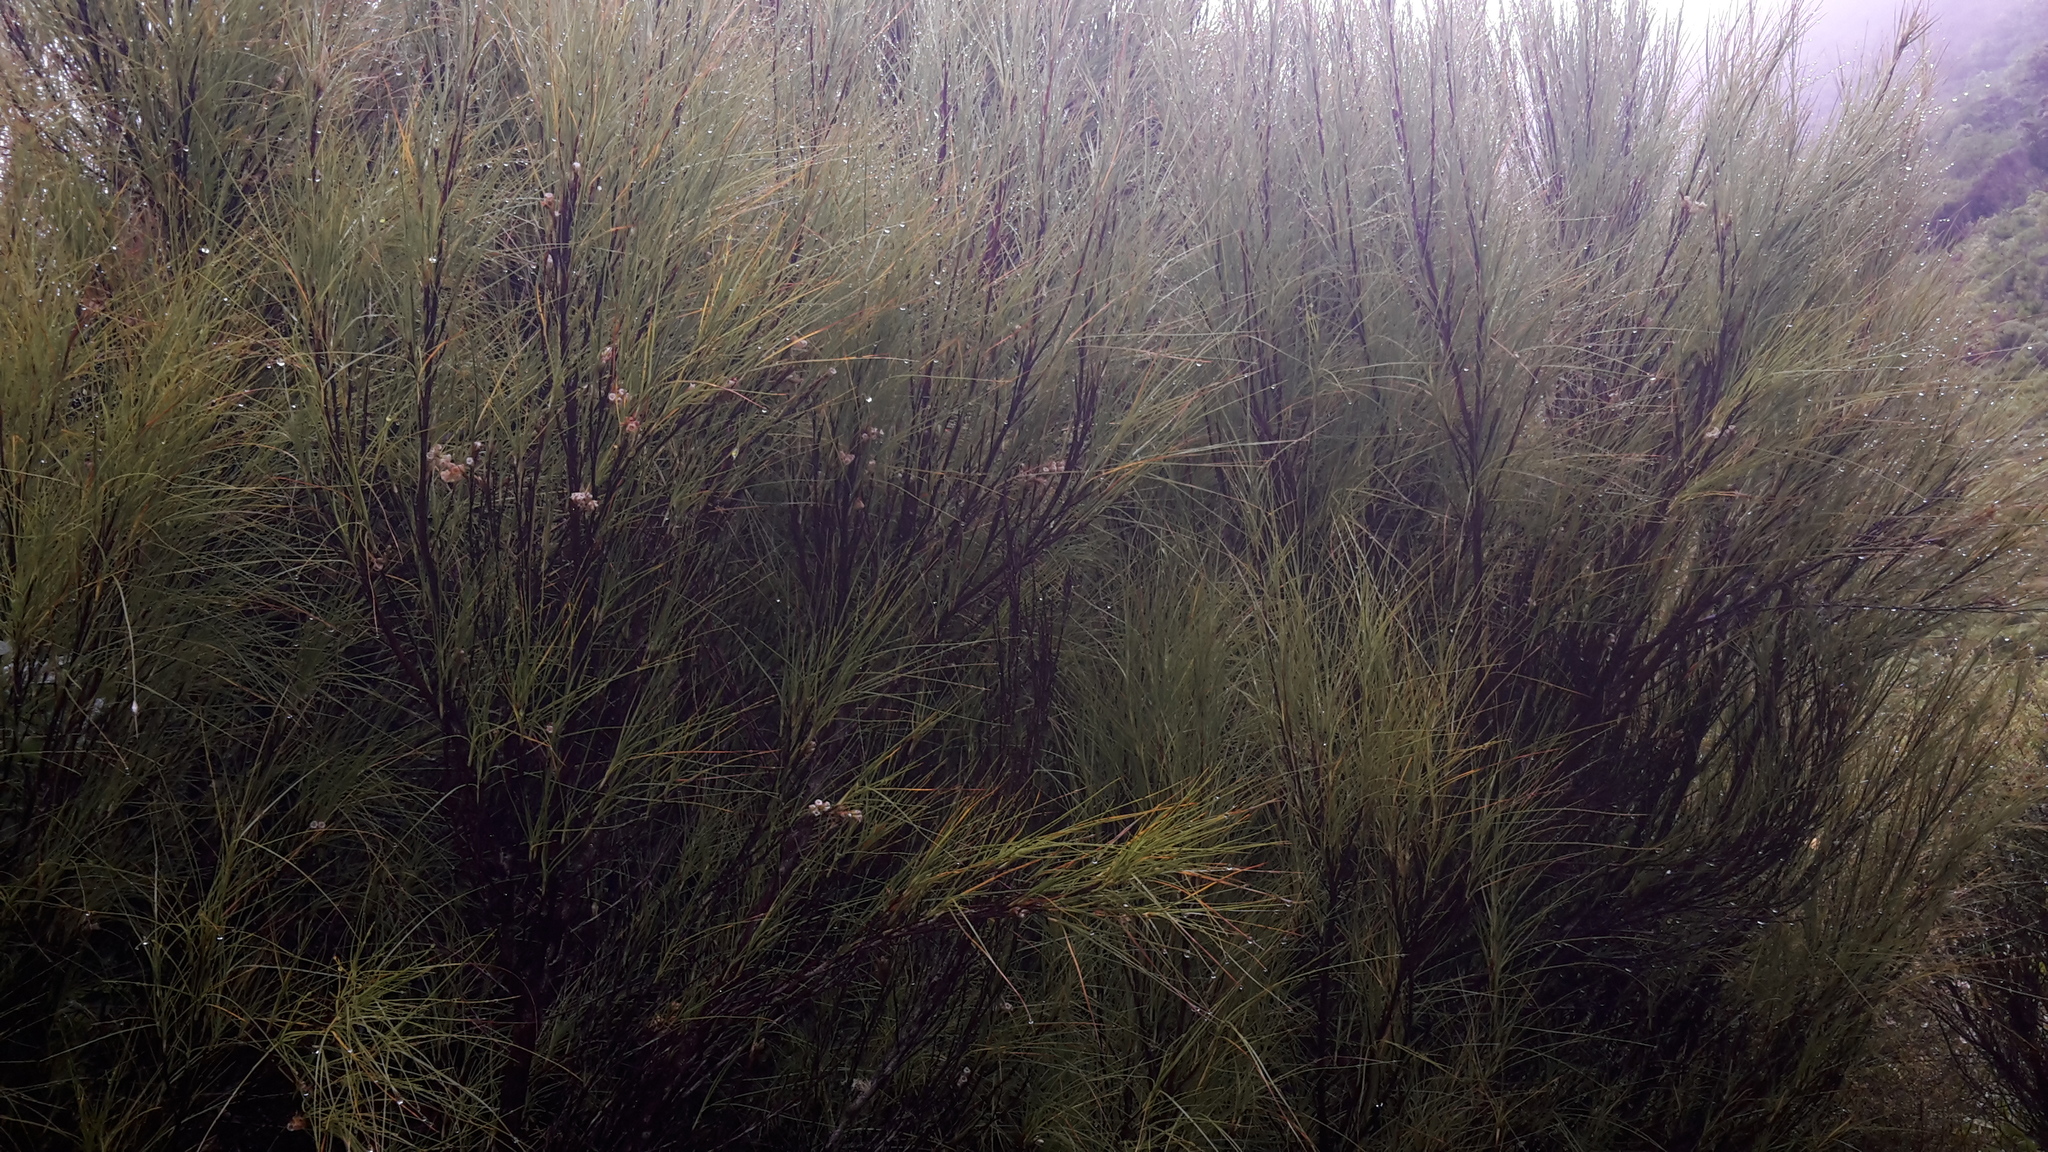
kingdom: Plantae
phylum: Tracheophyta
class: Magnoliopsida
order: Ericales
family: Ericaceae
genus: Dracophyllum
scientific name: Dracophyllum filifolium
